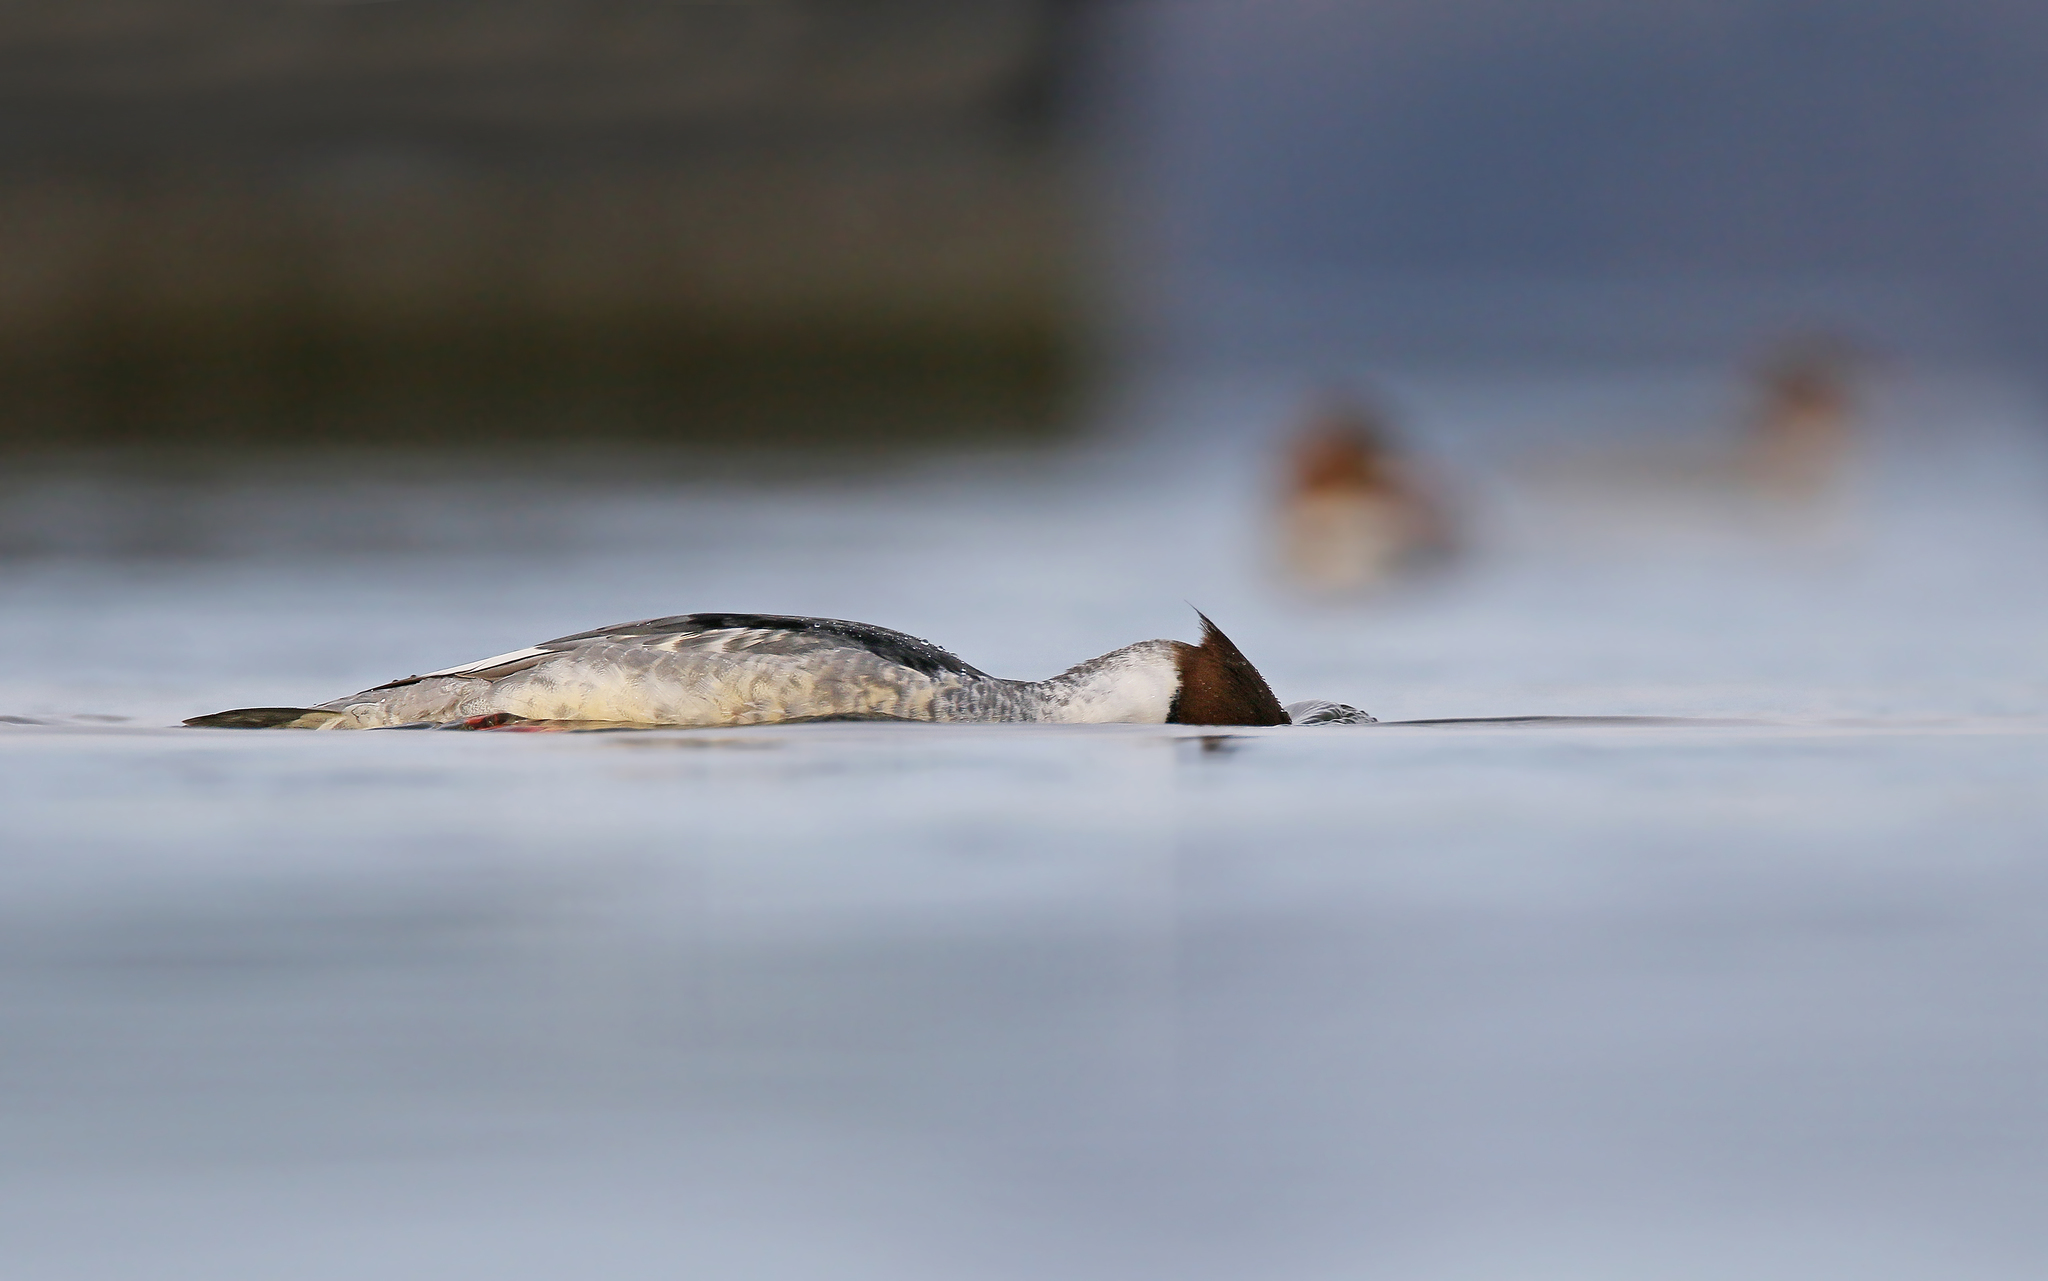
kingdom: Animalia
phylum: Chordata
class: Aves
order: Anseriformes
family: Anatidae
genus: Mergus
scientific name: Mergus merganser
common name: Common merganser
